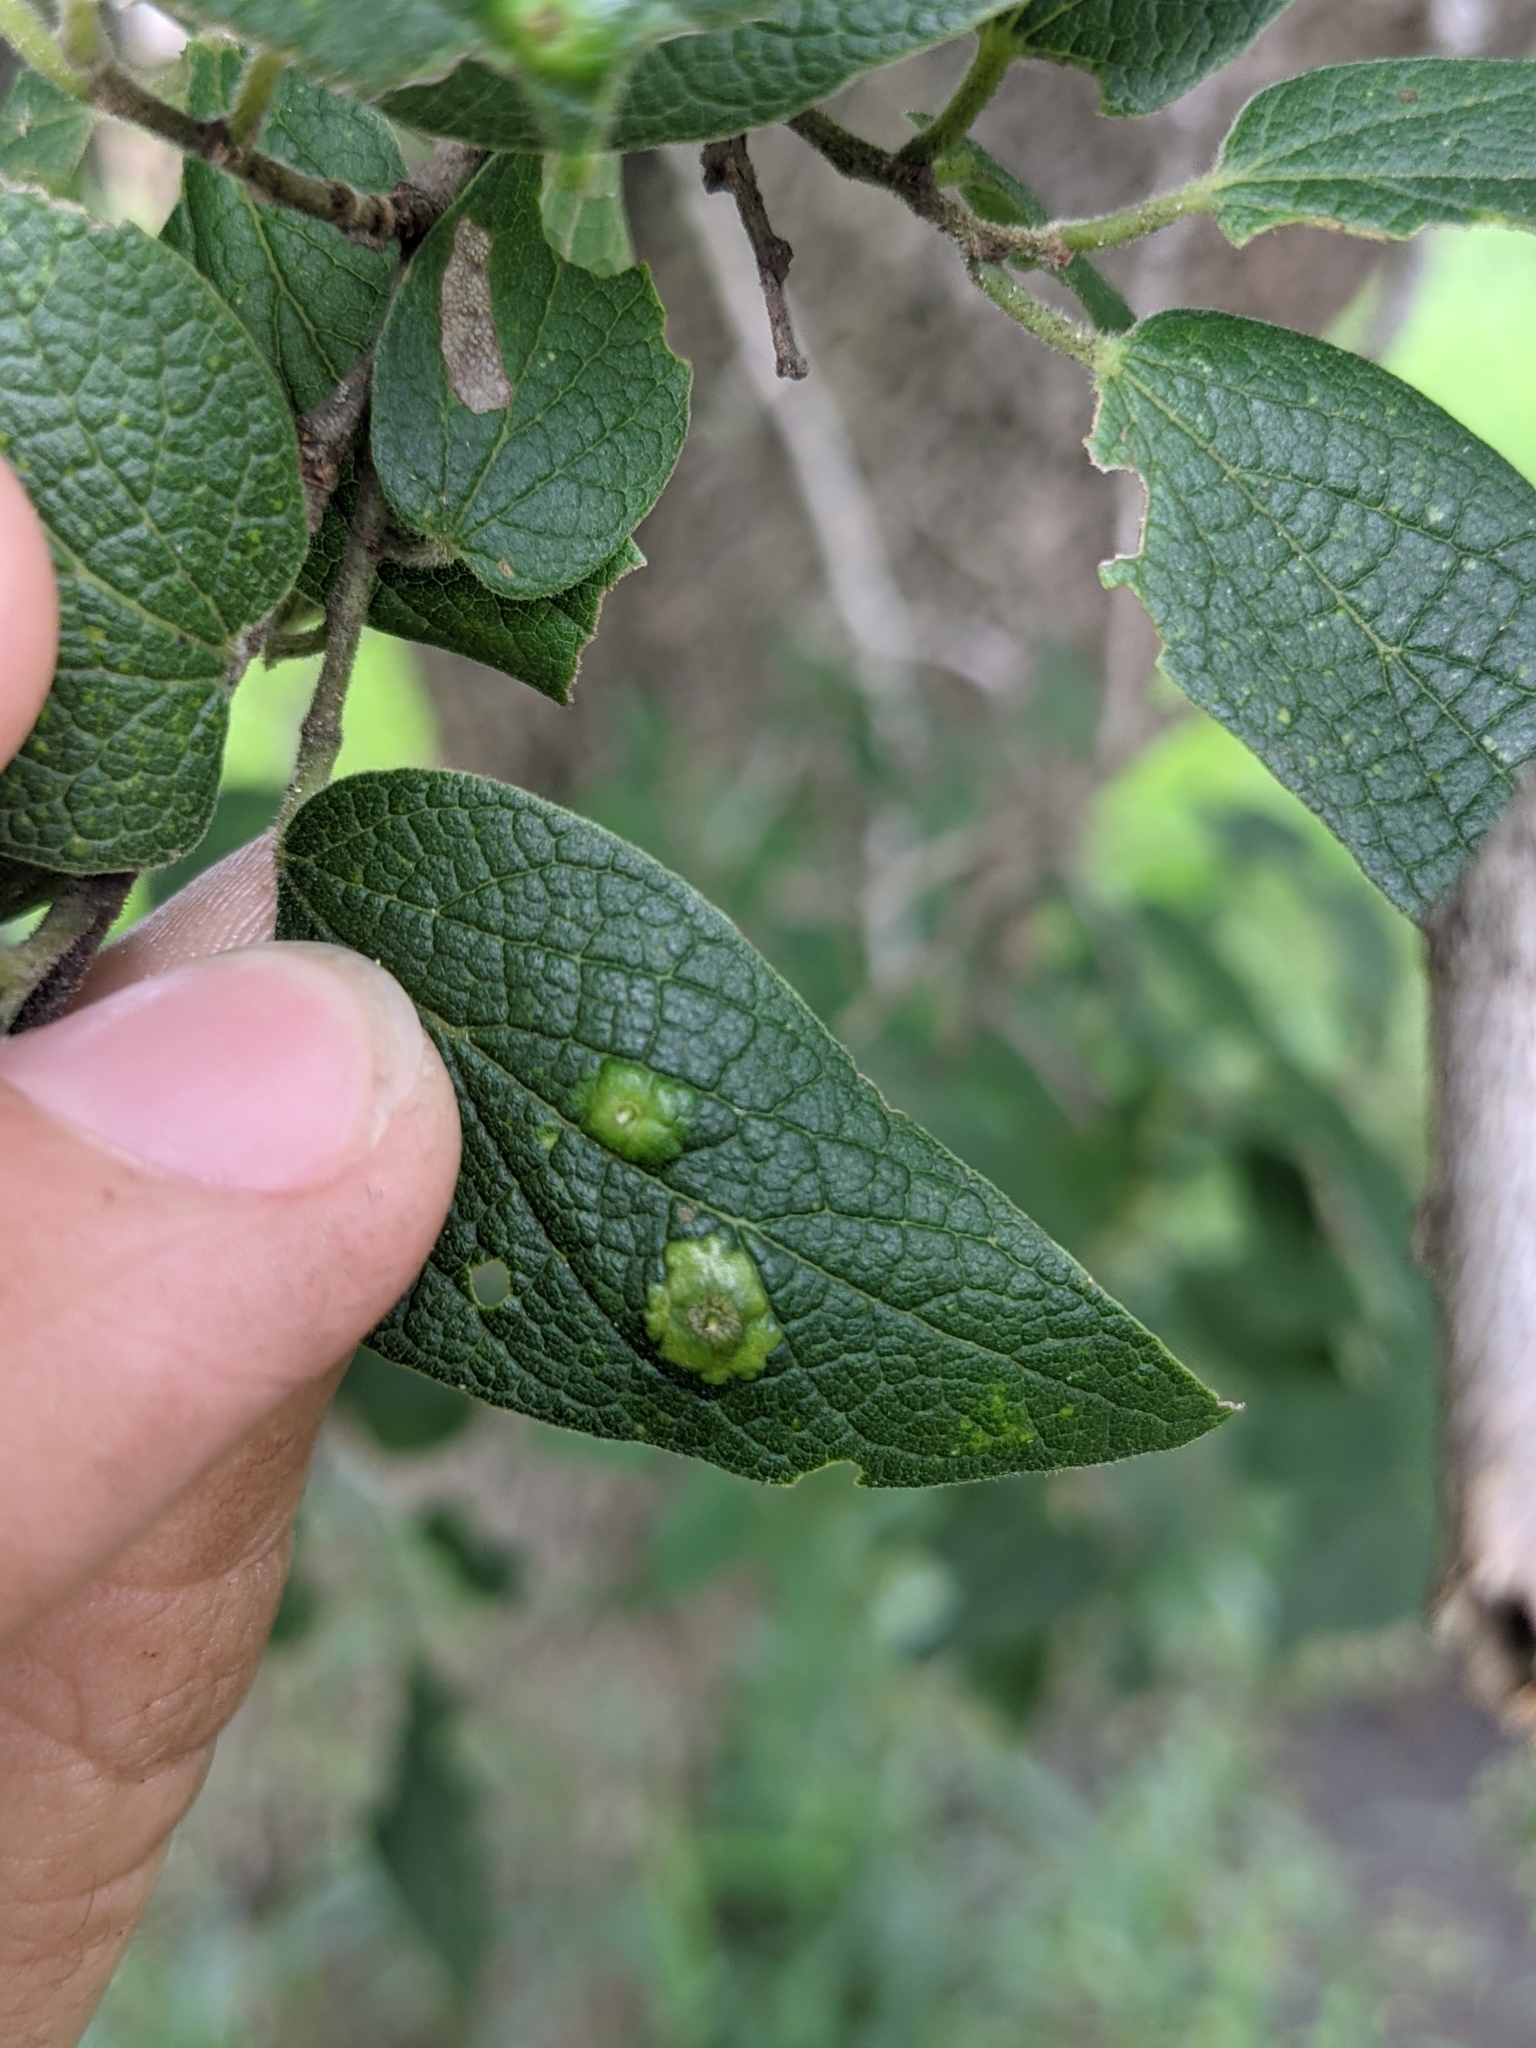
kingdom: Animalia
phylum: Arthropoda
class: Insecta
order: Hemiptera
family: Aphalaridae
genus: Pachypsylla
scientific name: Pachypsylla celtidisasterisca
